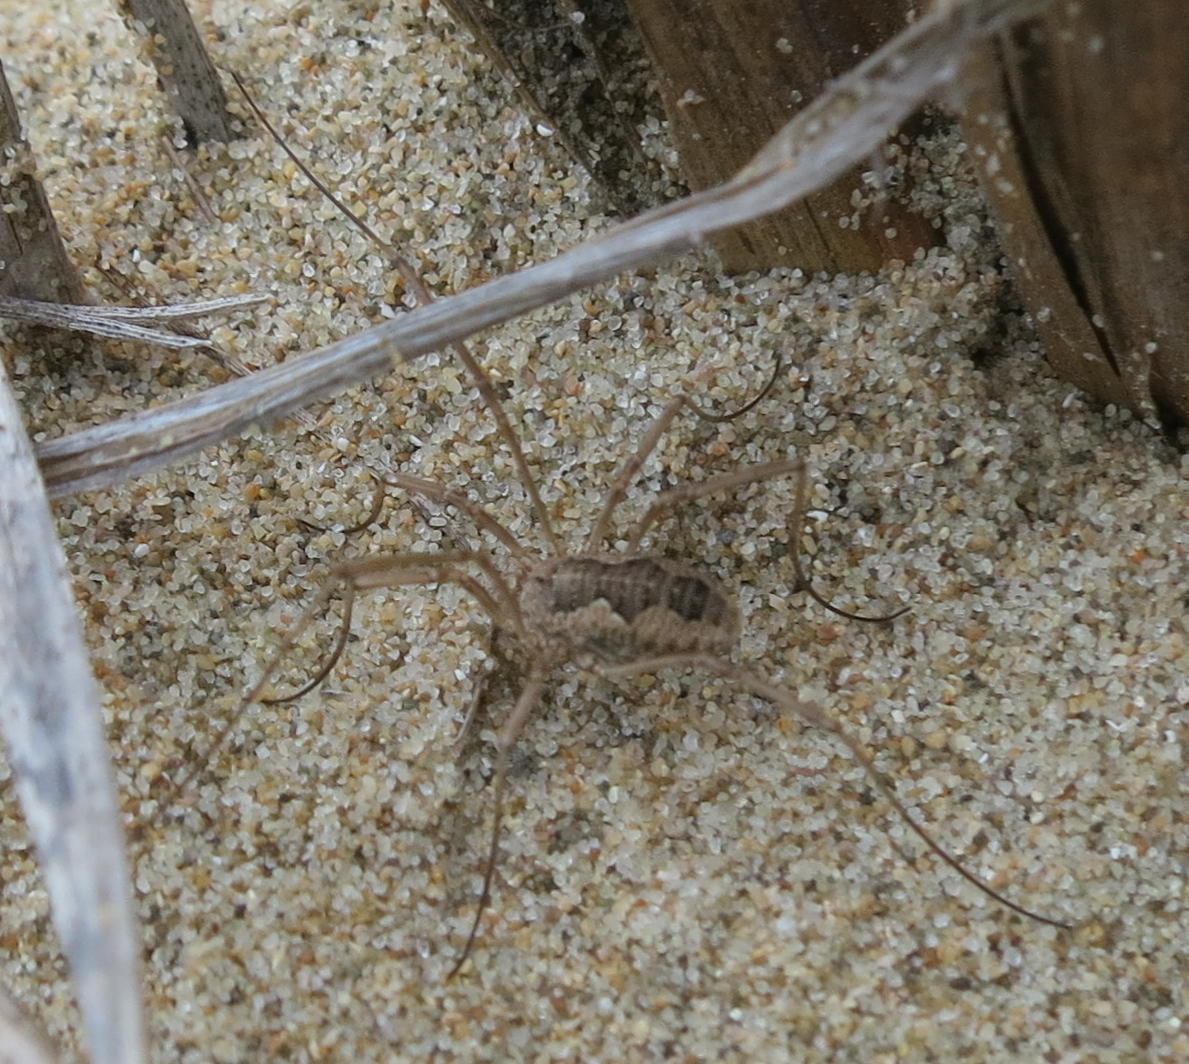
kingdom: Animalia
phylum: Arthropoda
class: Arachnida
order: Opiliones
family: Phalangiidae
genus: Phalangium
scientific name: Phalangium opilio
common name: Daddy longleg
